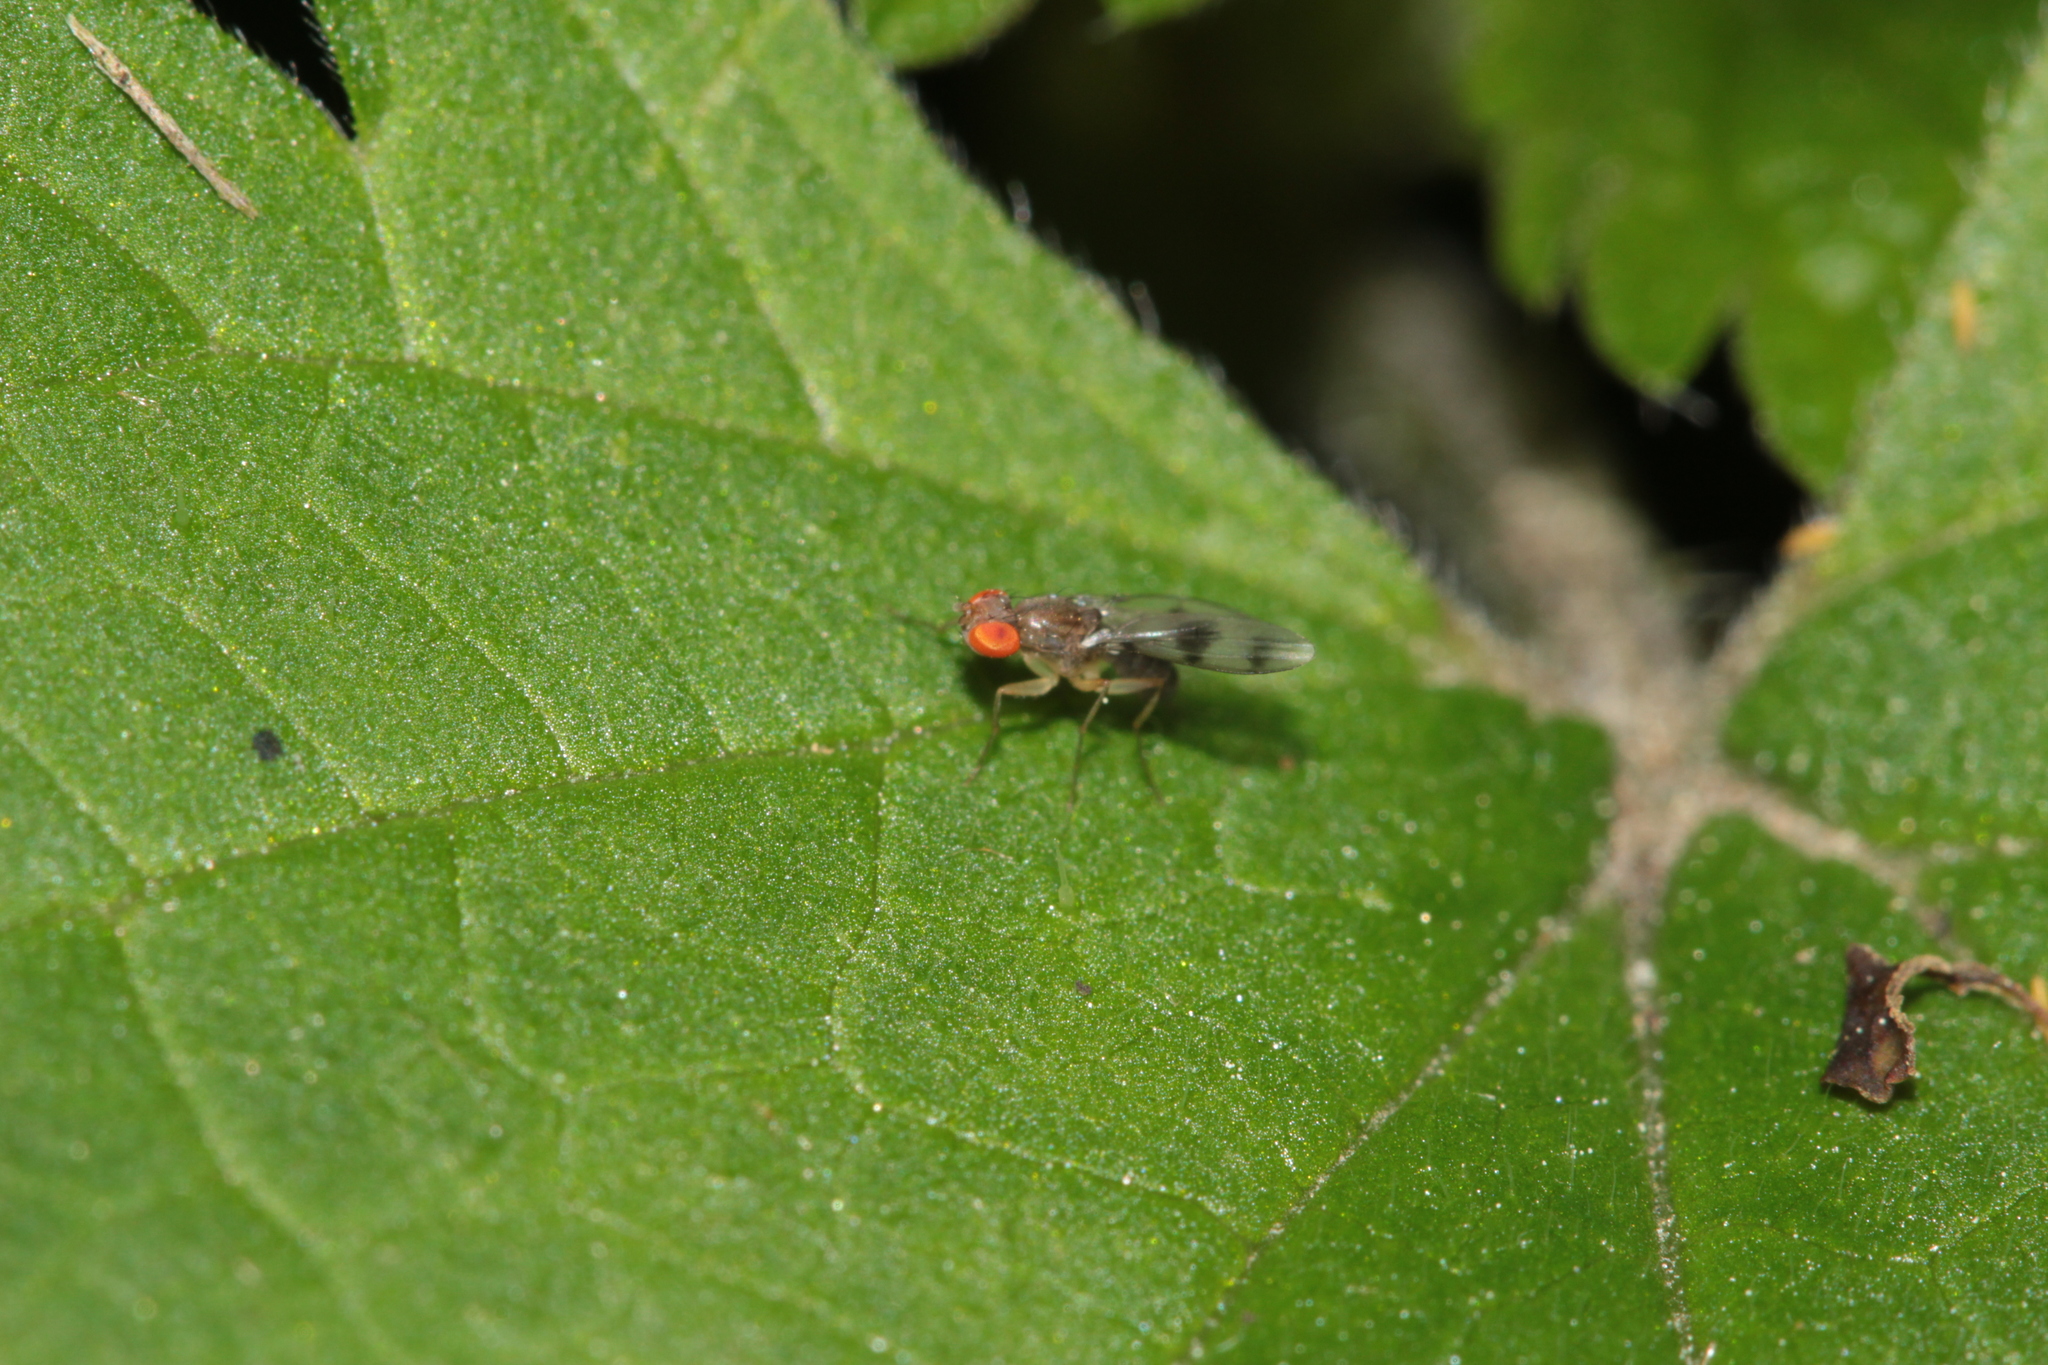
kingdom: Animalia
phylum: Arthropoda
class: Insecta
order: Diptera
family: Drosophilidae
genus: Chymomyza
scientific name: Chymomyza amoena
